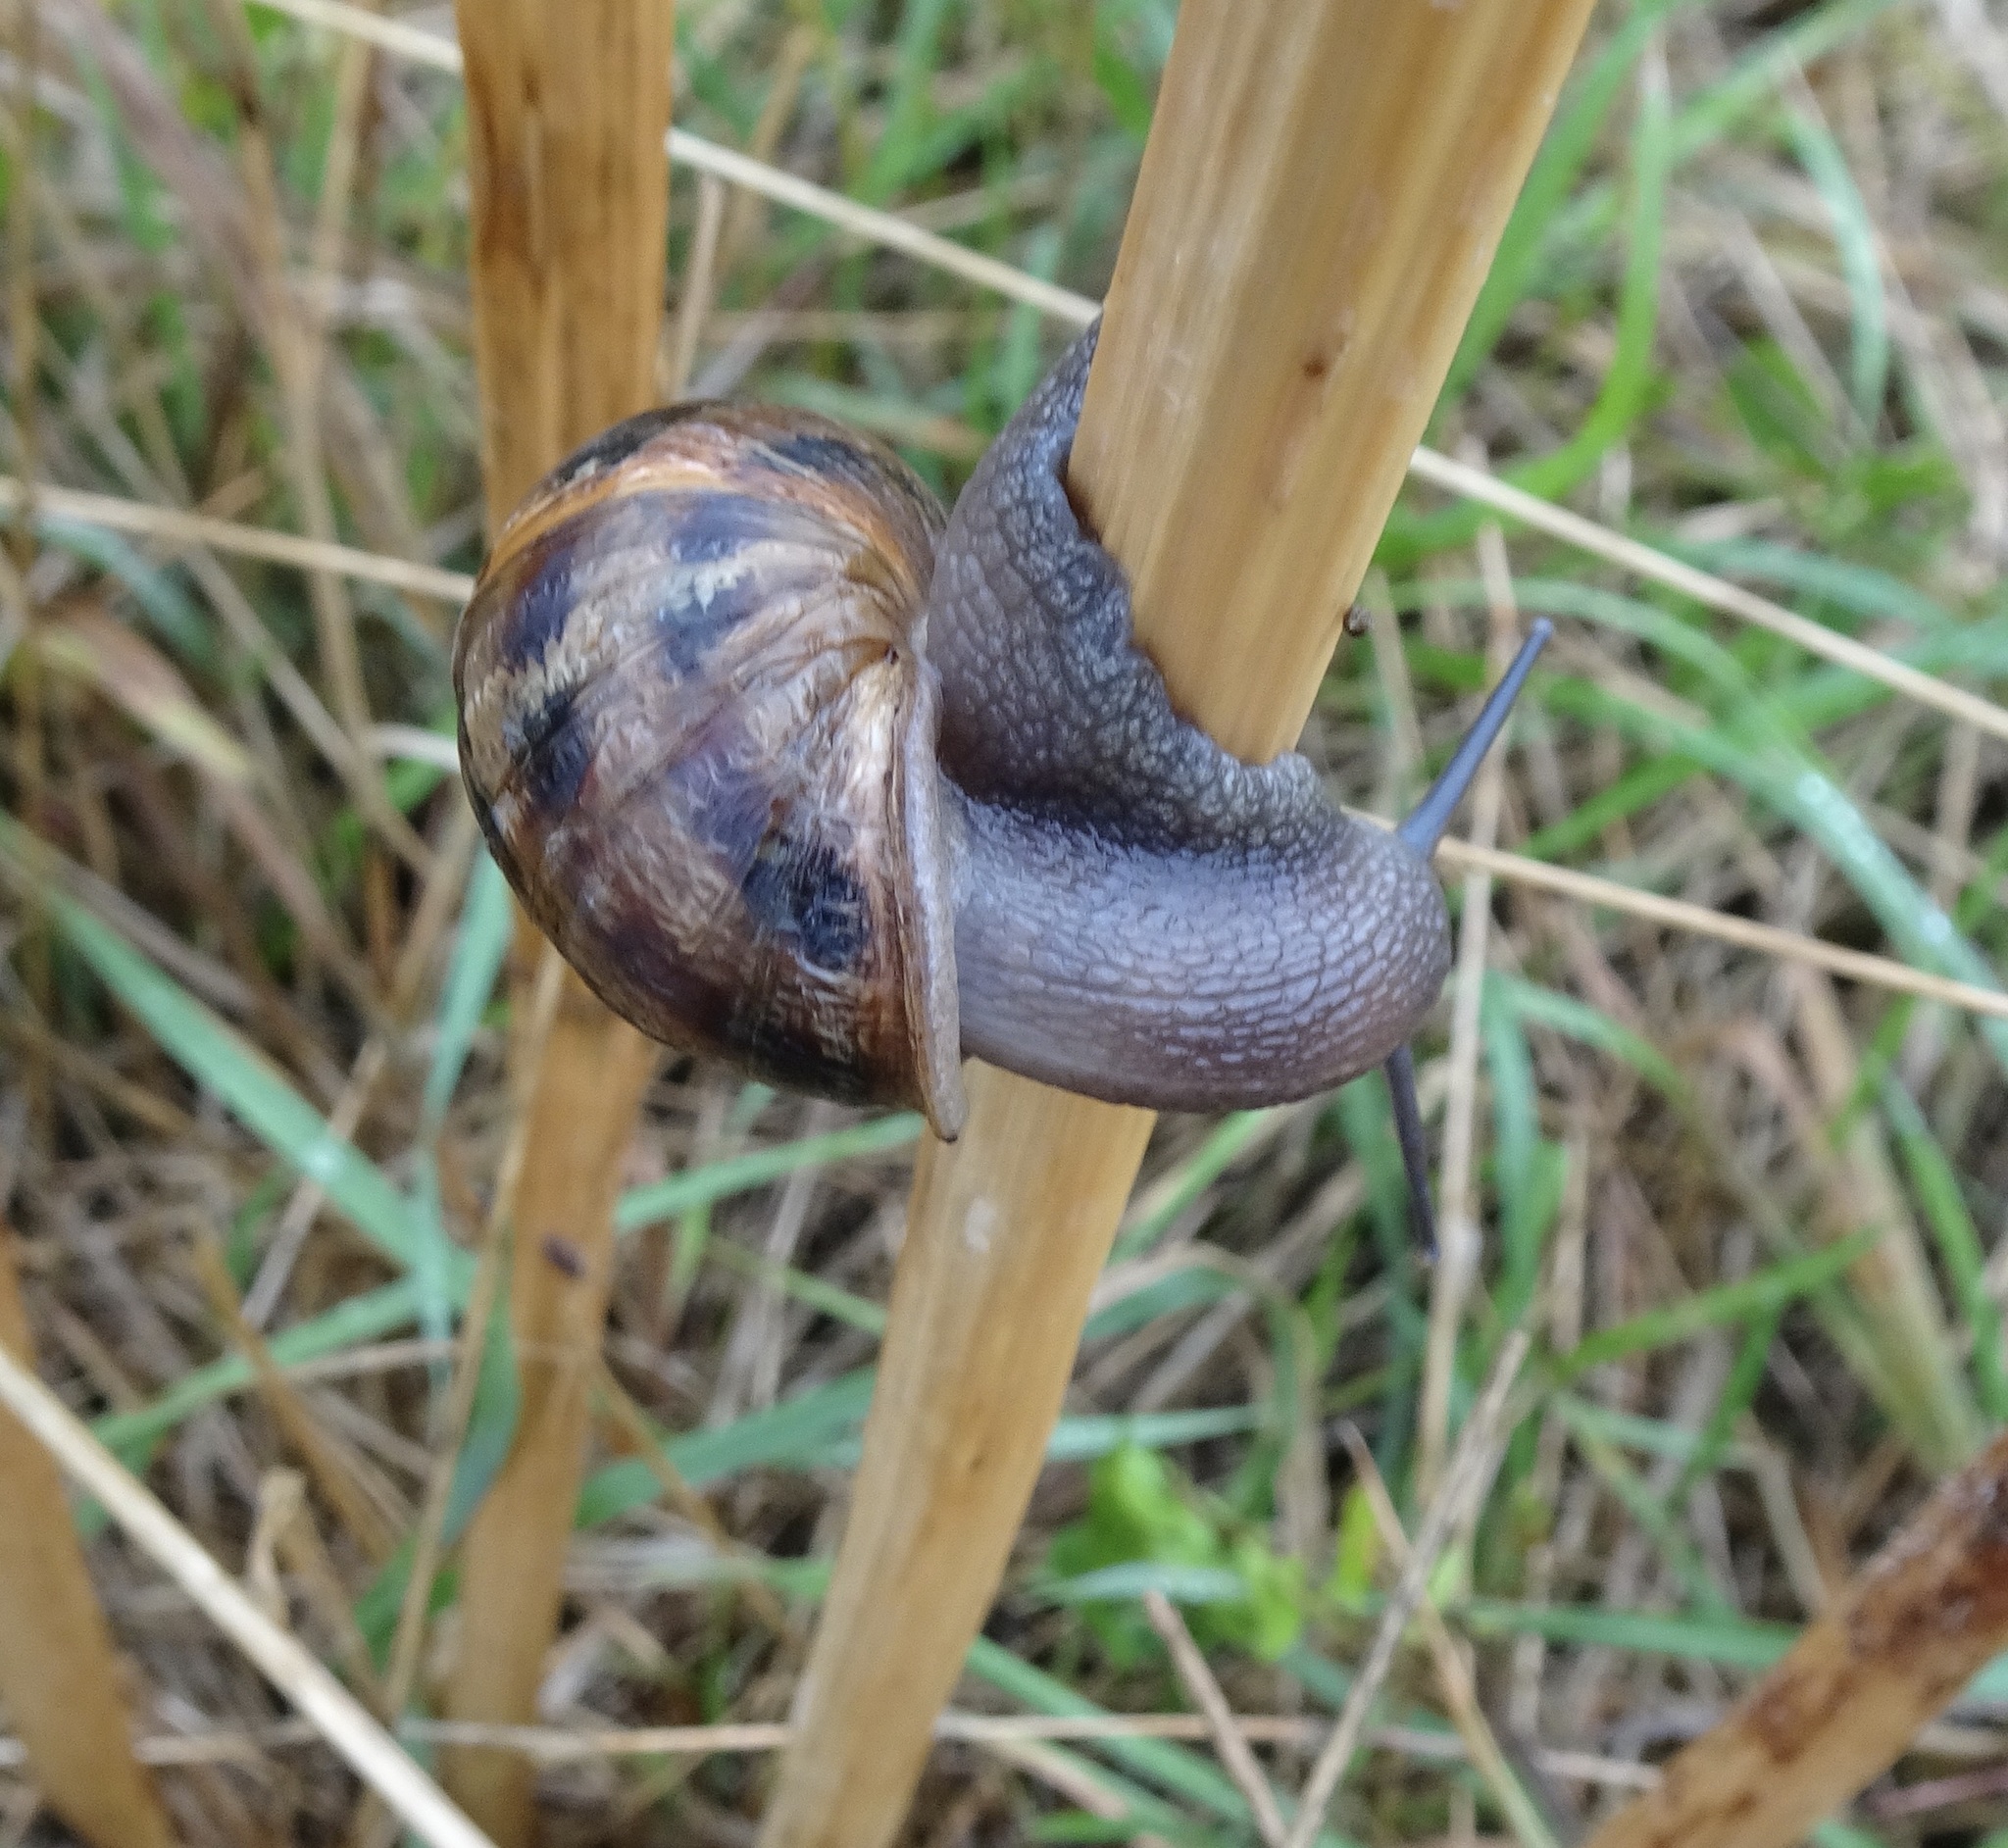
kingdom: Animalia
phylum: Mollusca
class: Gastropoda
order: Stylommatophora
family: Helicidae
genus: Cornu
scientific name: Cornu aspersum
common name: Brown garden snail
